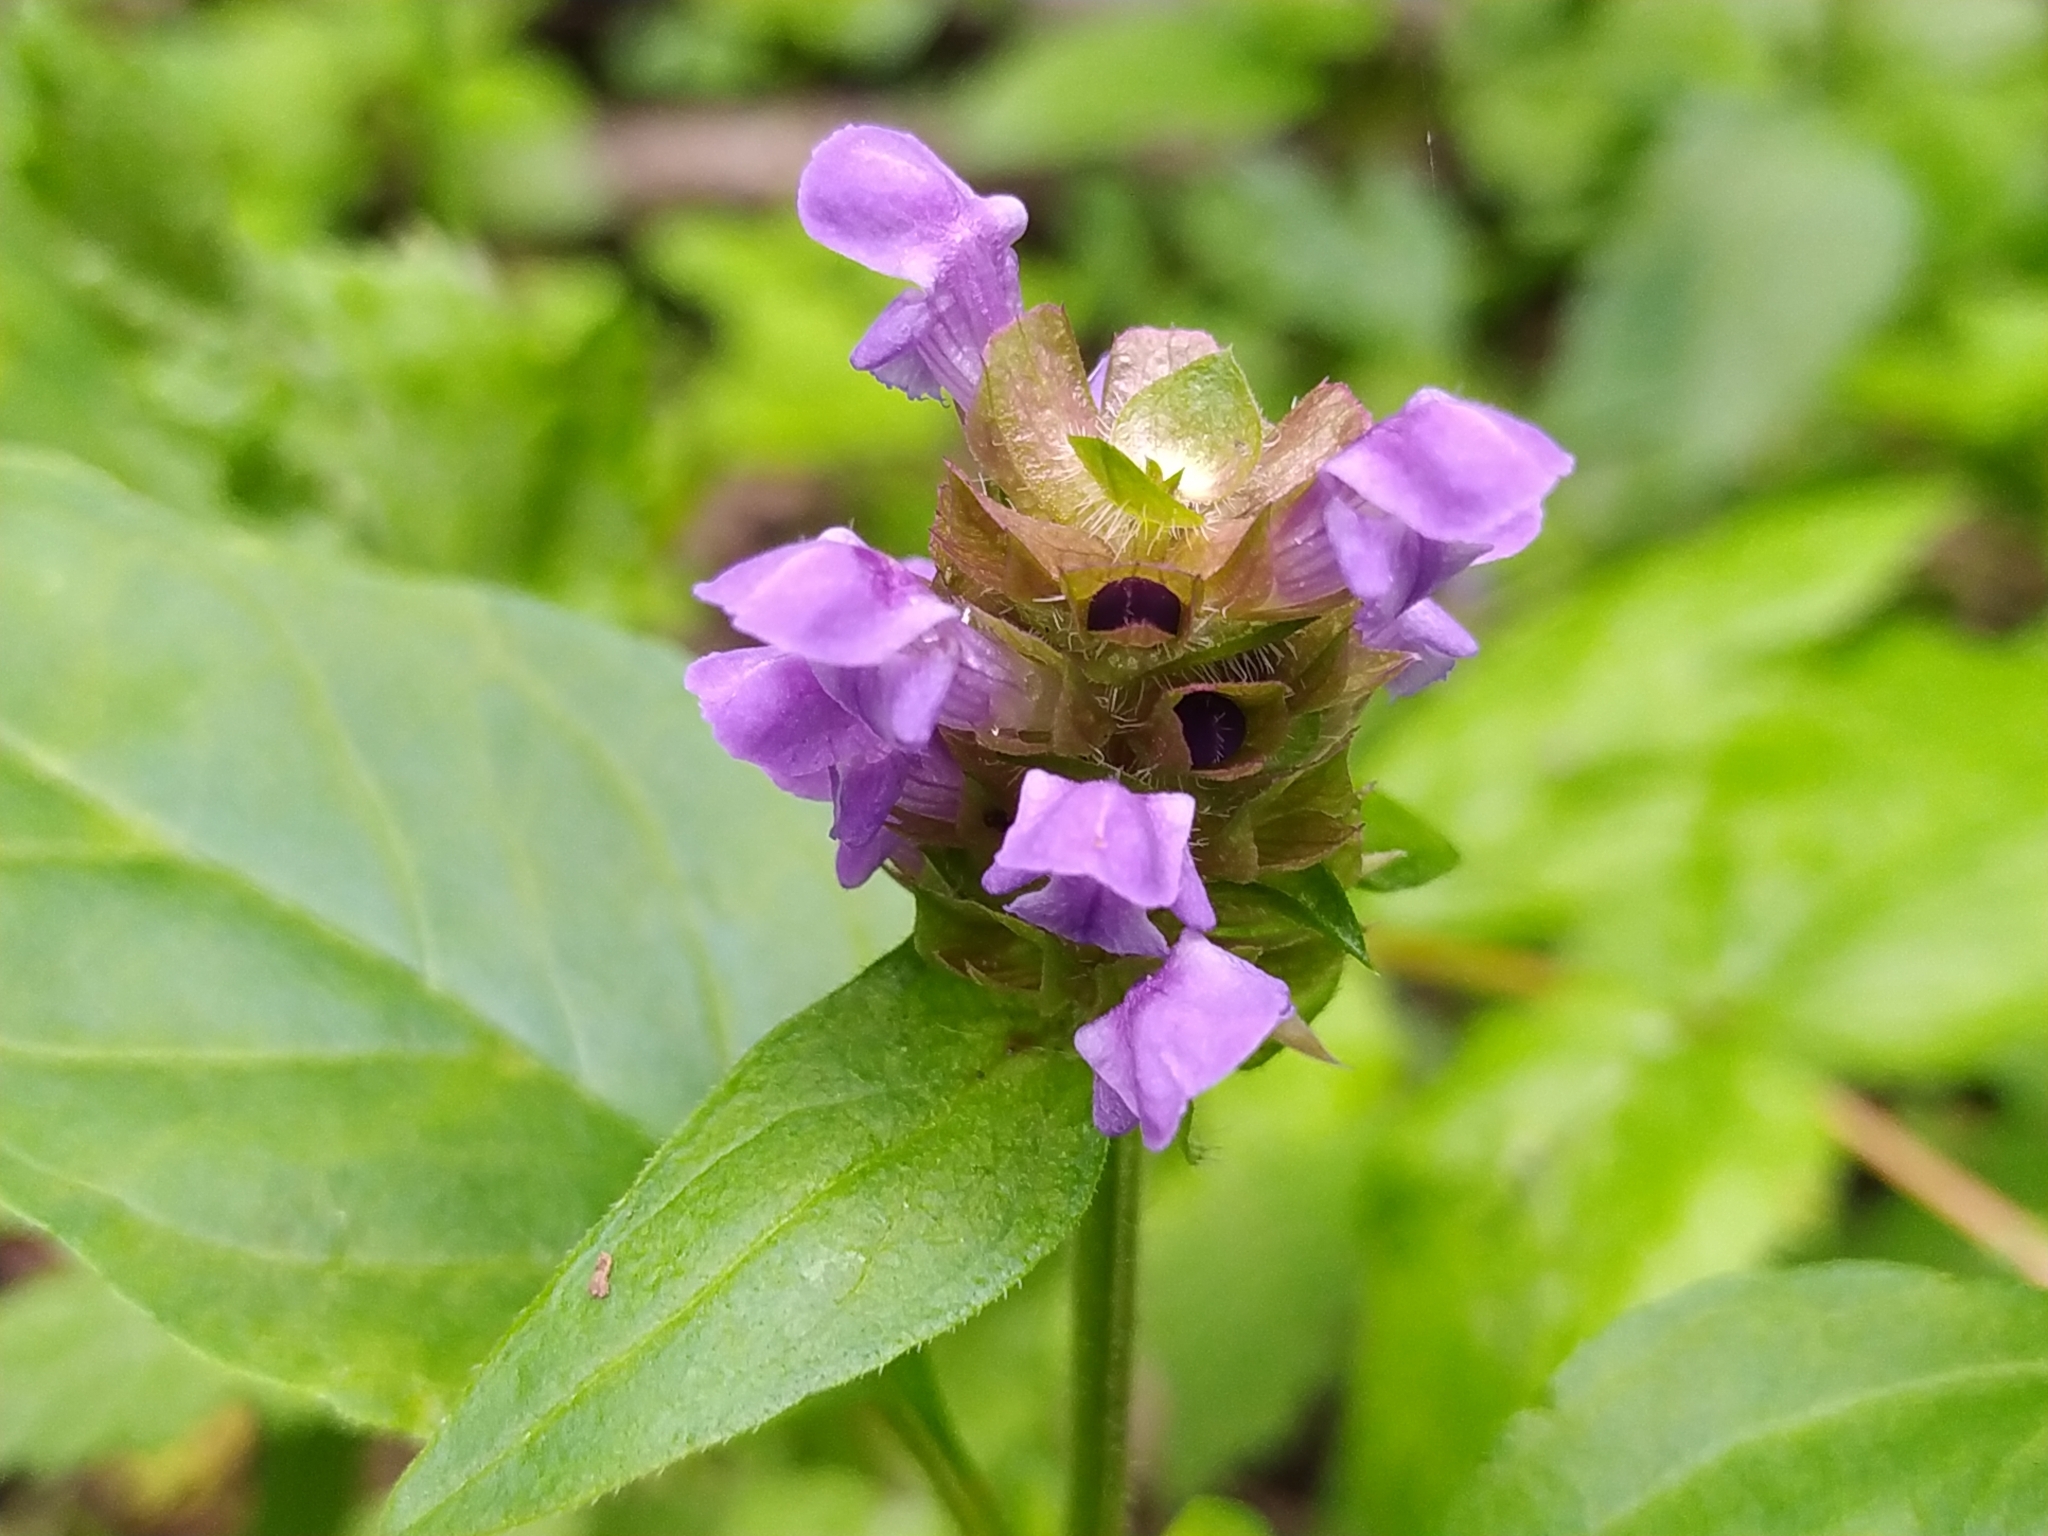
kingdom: Plantae
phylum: Tracheophyta
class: Magnoliopsida
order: Lamiales
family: Lamiaceae
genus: Prunella
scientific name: Prunella vulgaris
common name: Heal-all
